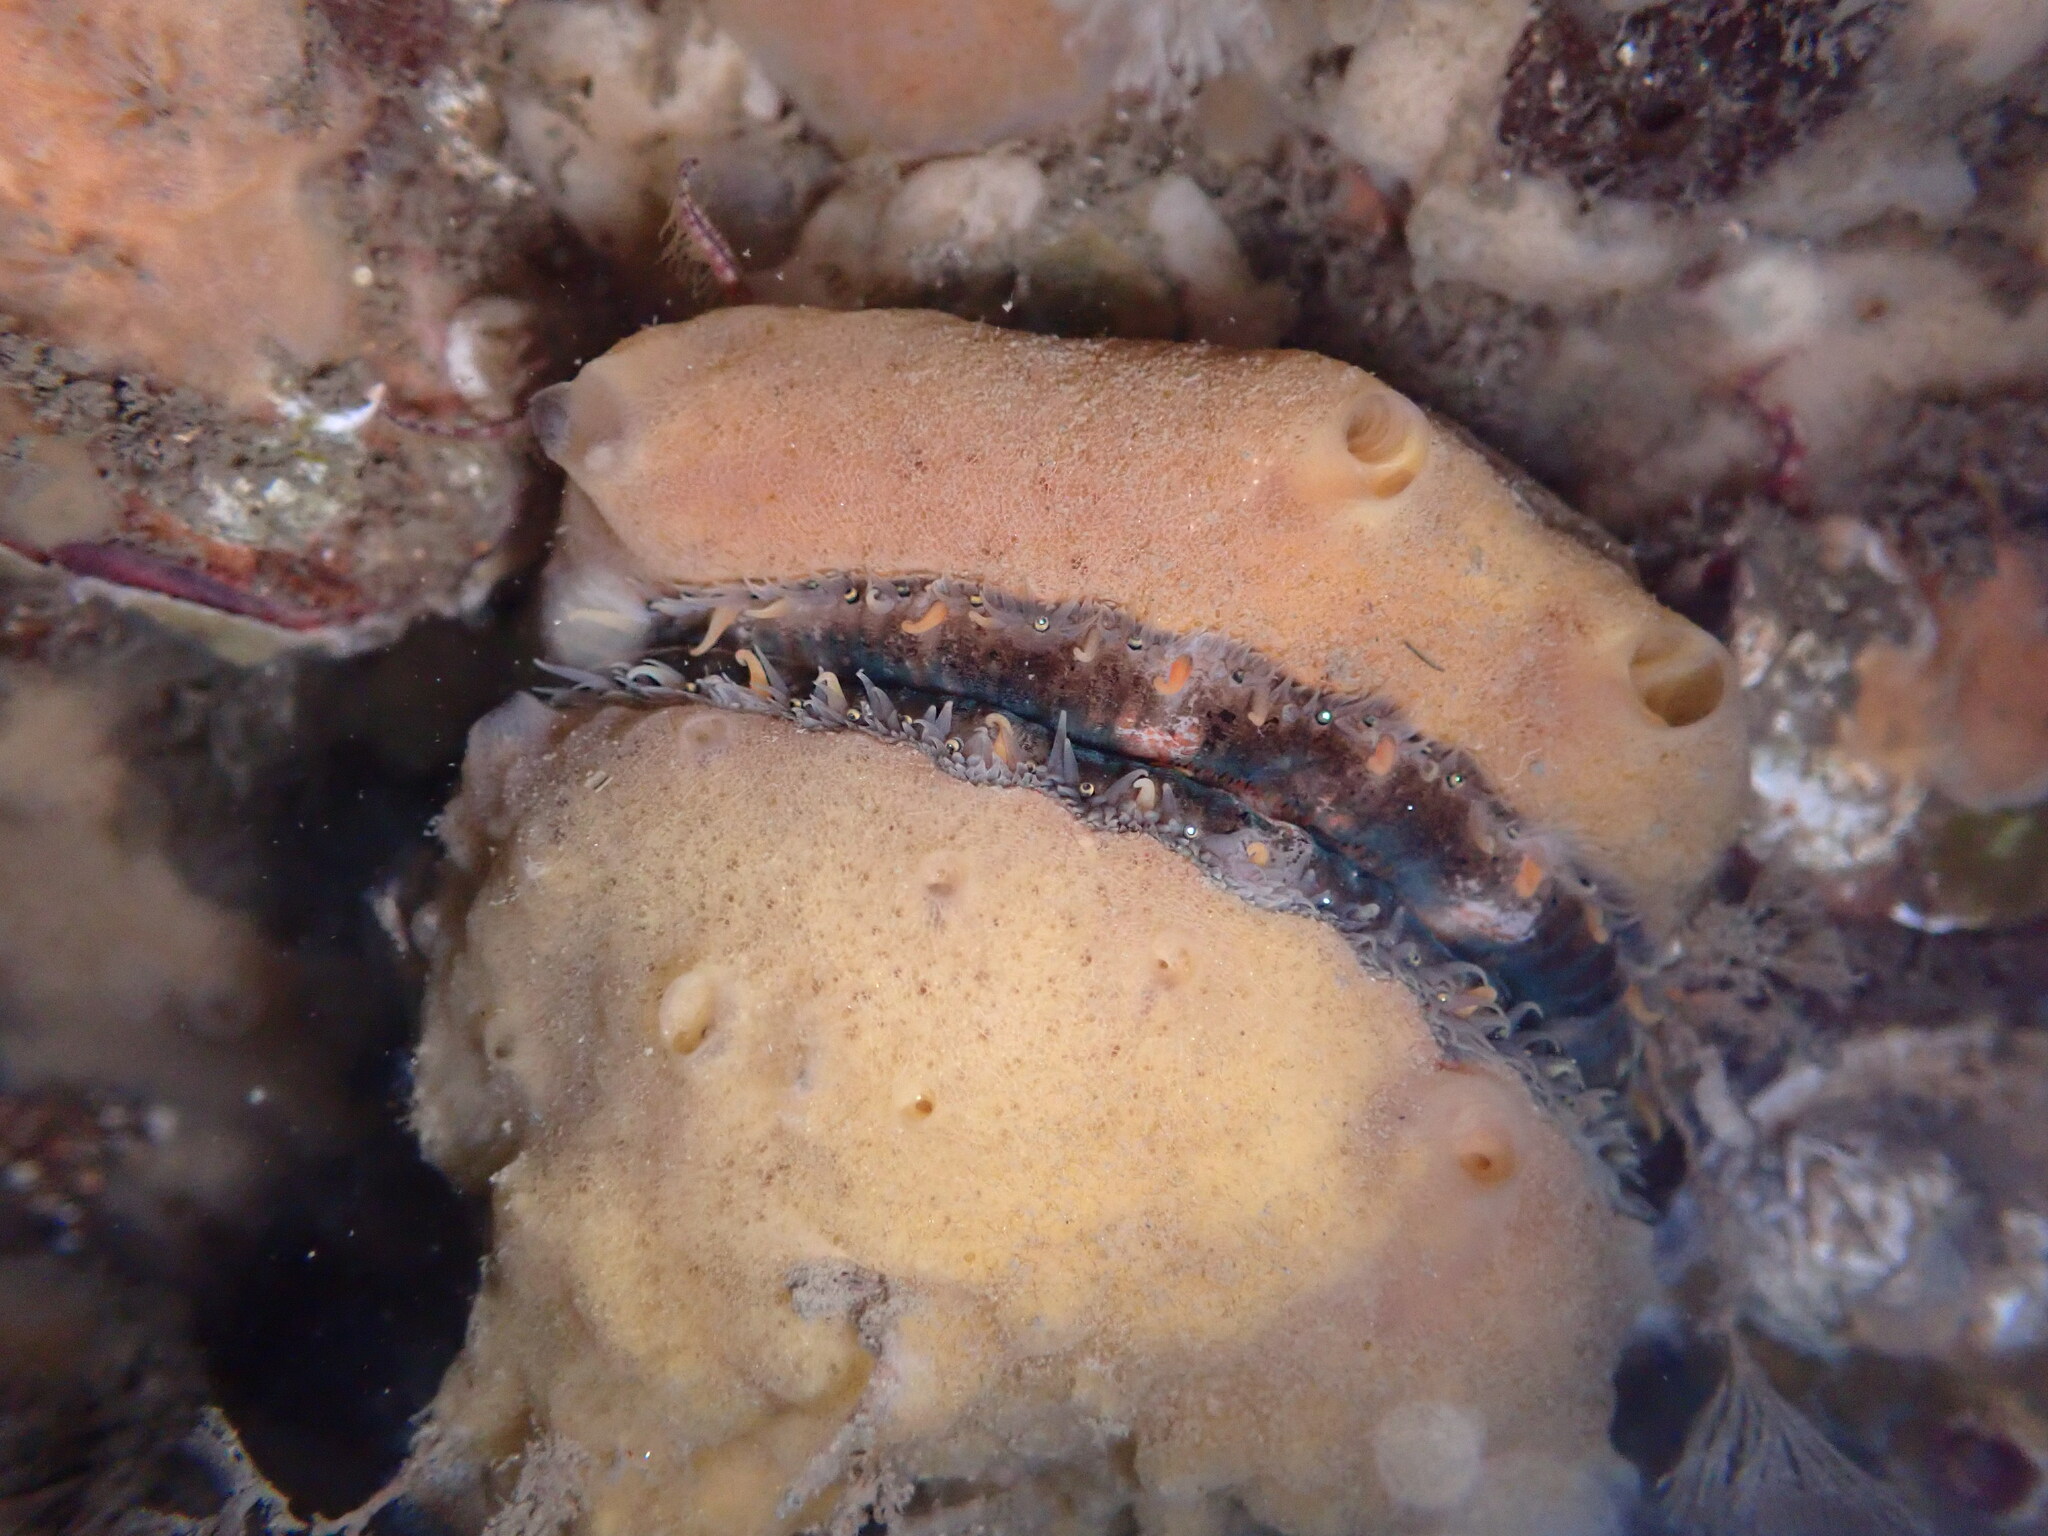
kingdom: Animalia
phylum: Mollusca
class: Bivalvia
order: Pectinida
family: Pectinidae
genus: Chlamys
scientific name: Chlamys hastata
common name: Spear scallop
